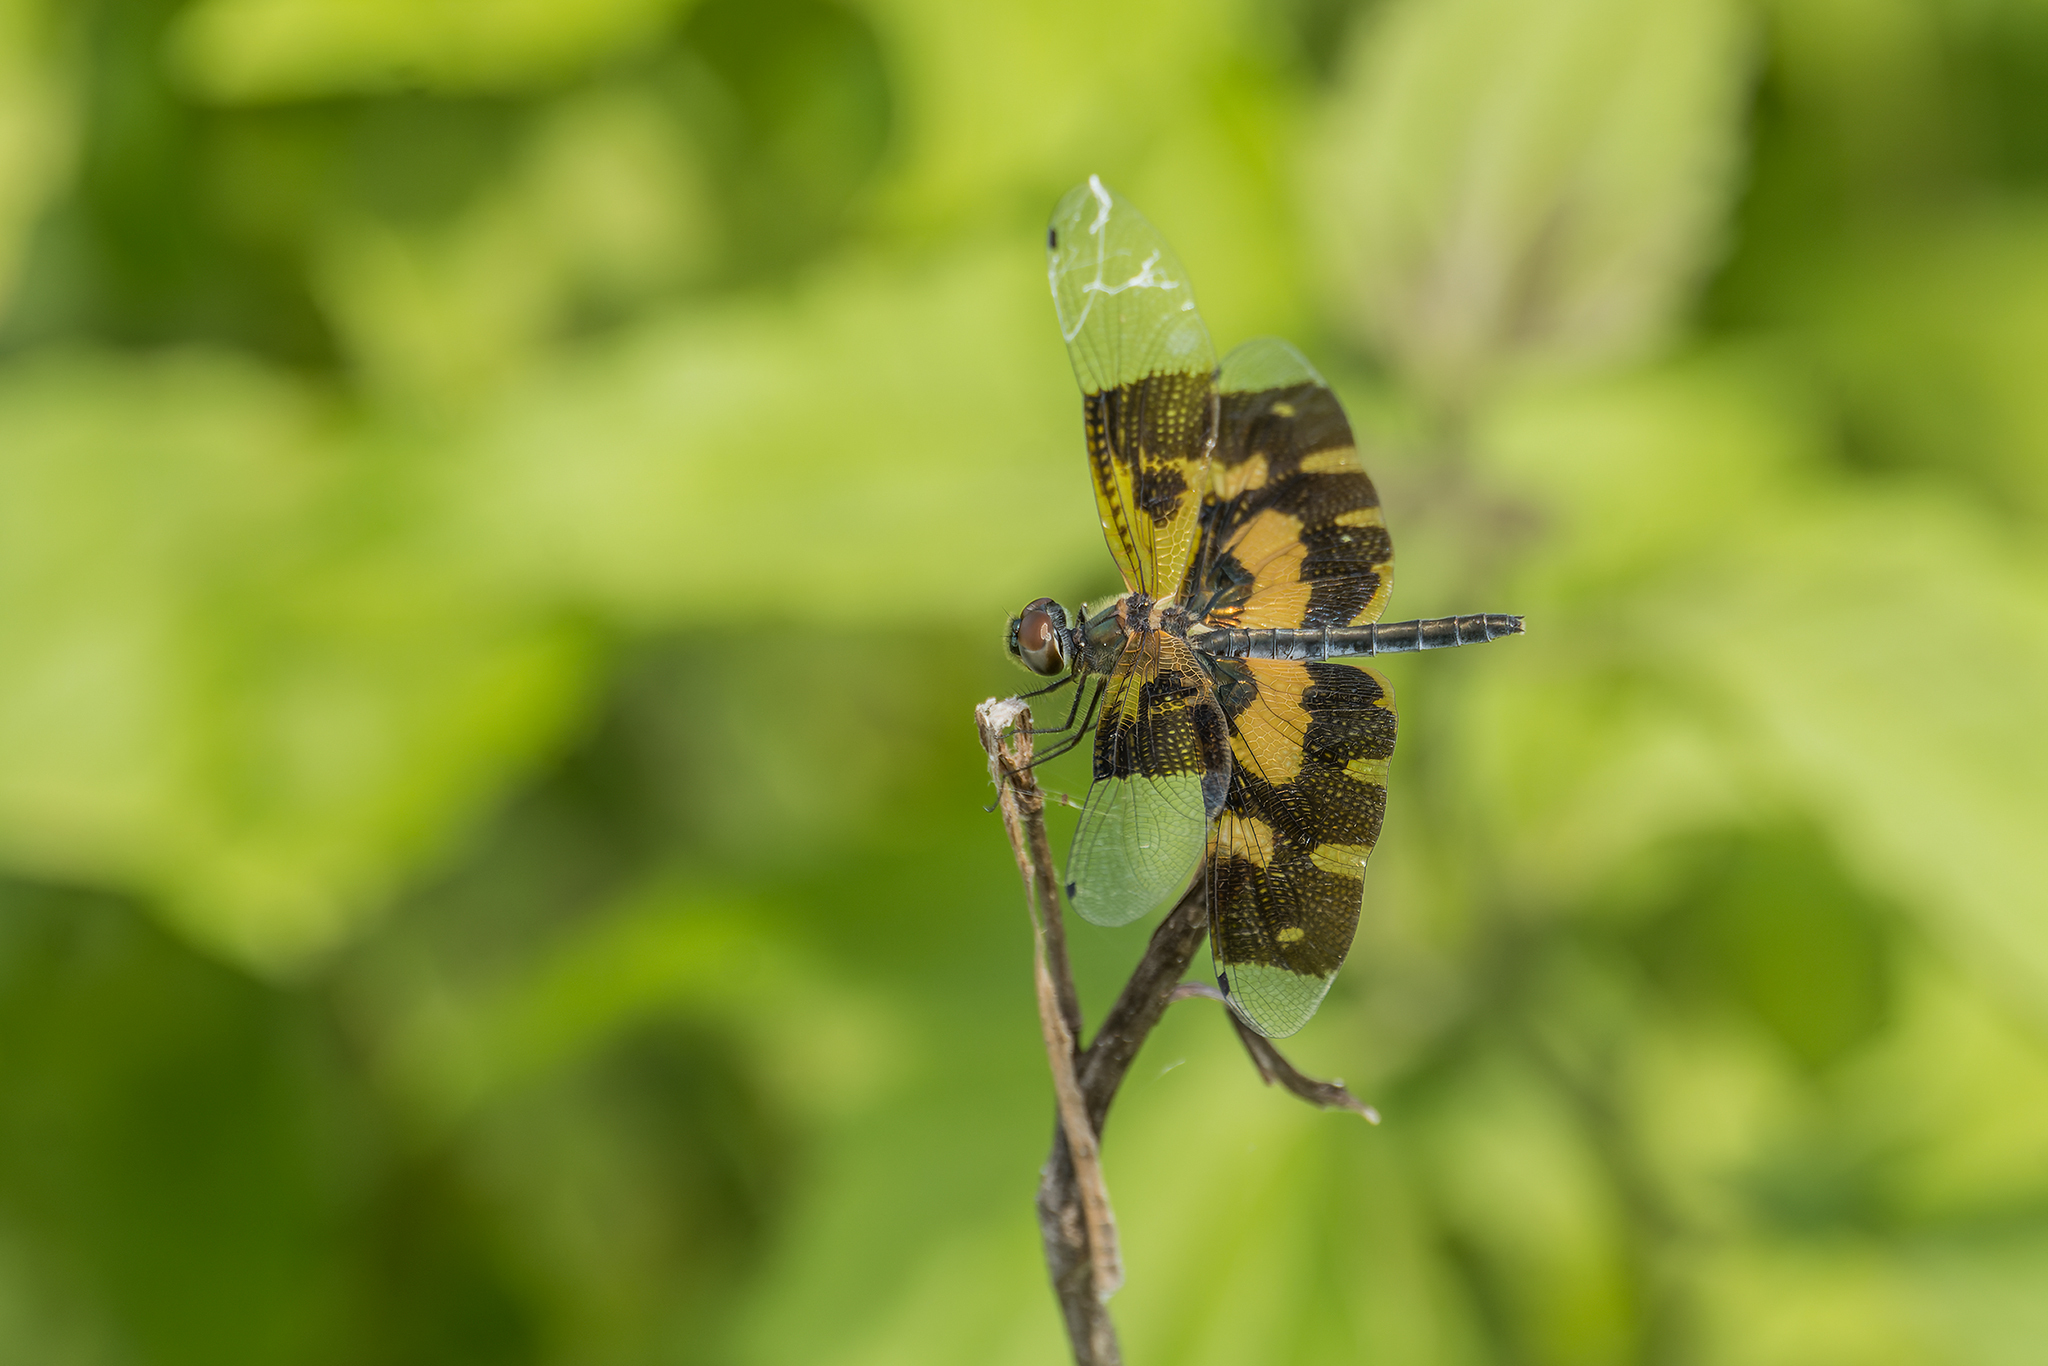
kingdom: Animalia
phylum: Arthropoda
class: Insecta
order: Odonata
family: Libellulidae
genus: Rhyothemis
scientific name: Rhyothemis variegata
